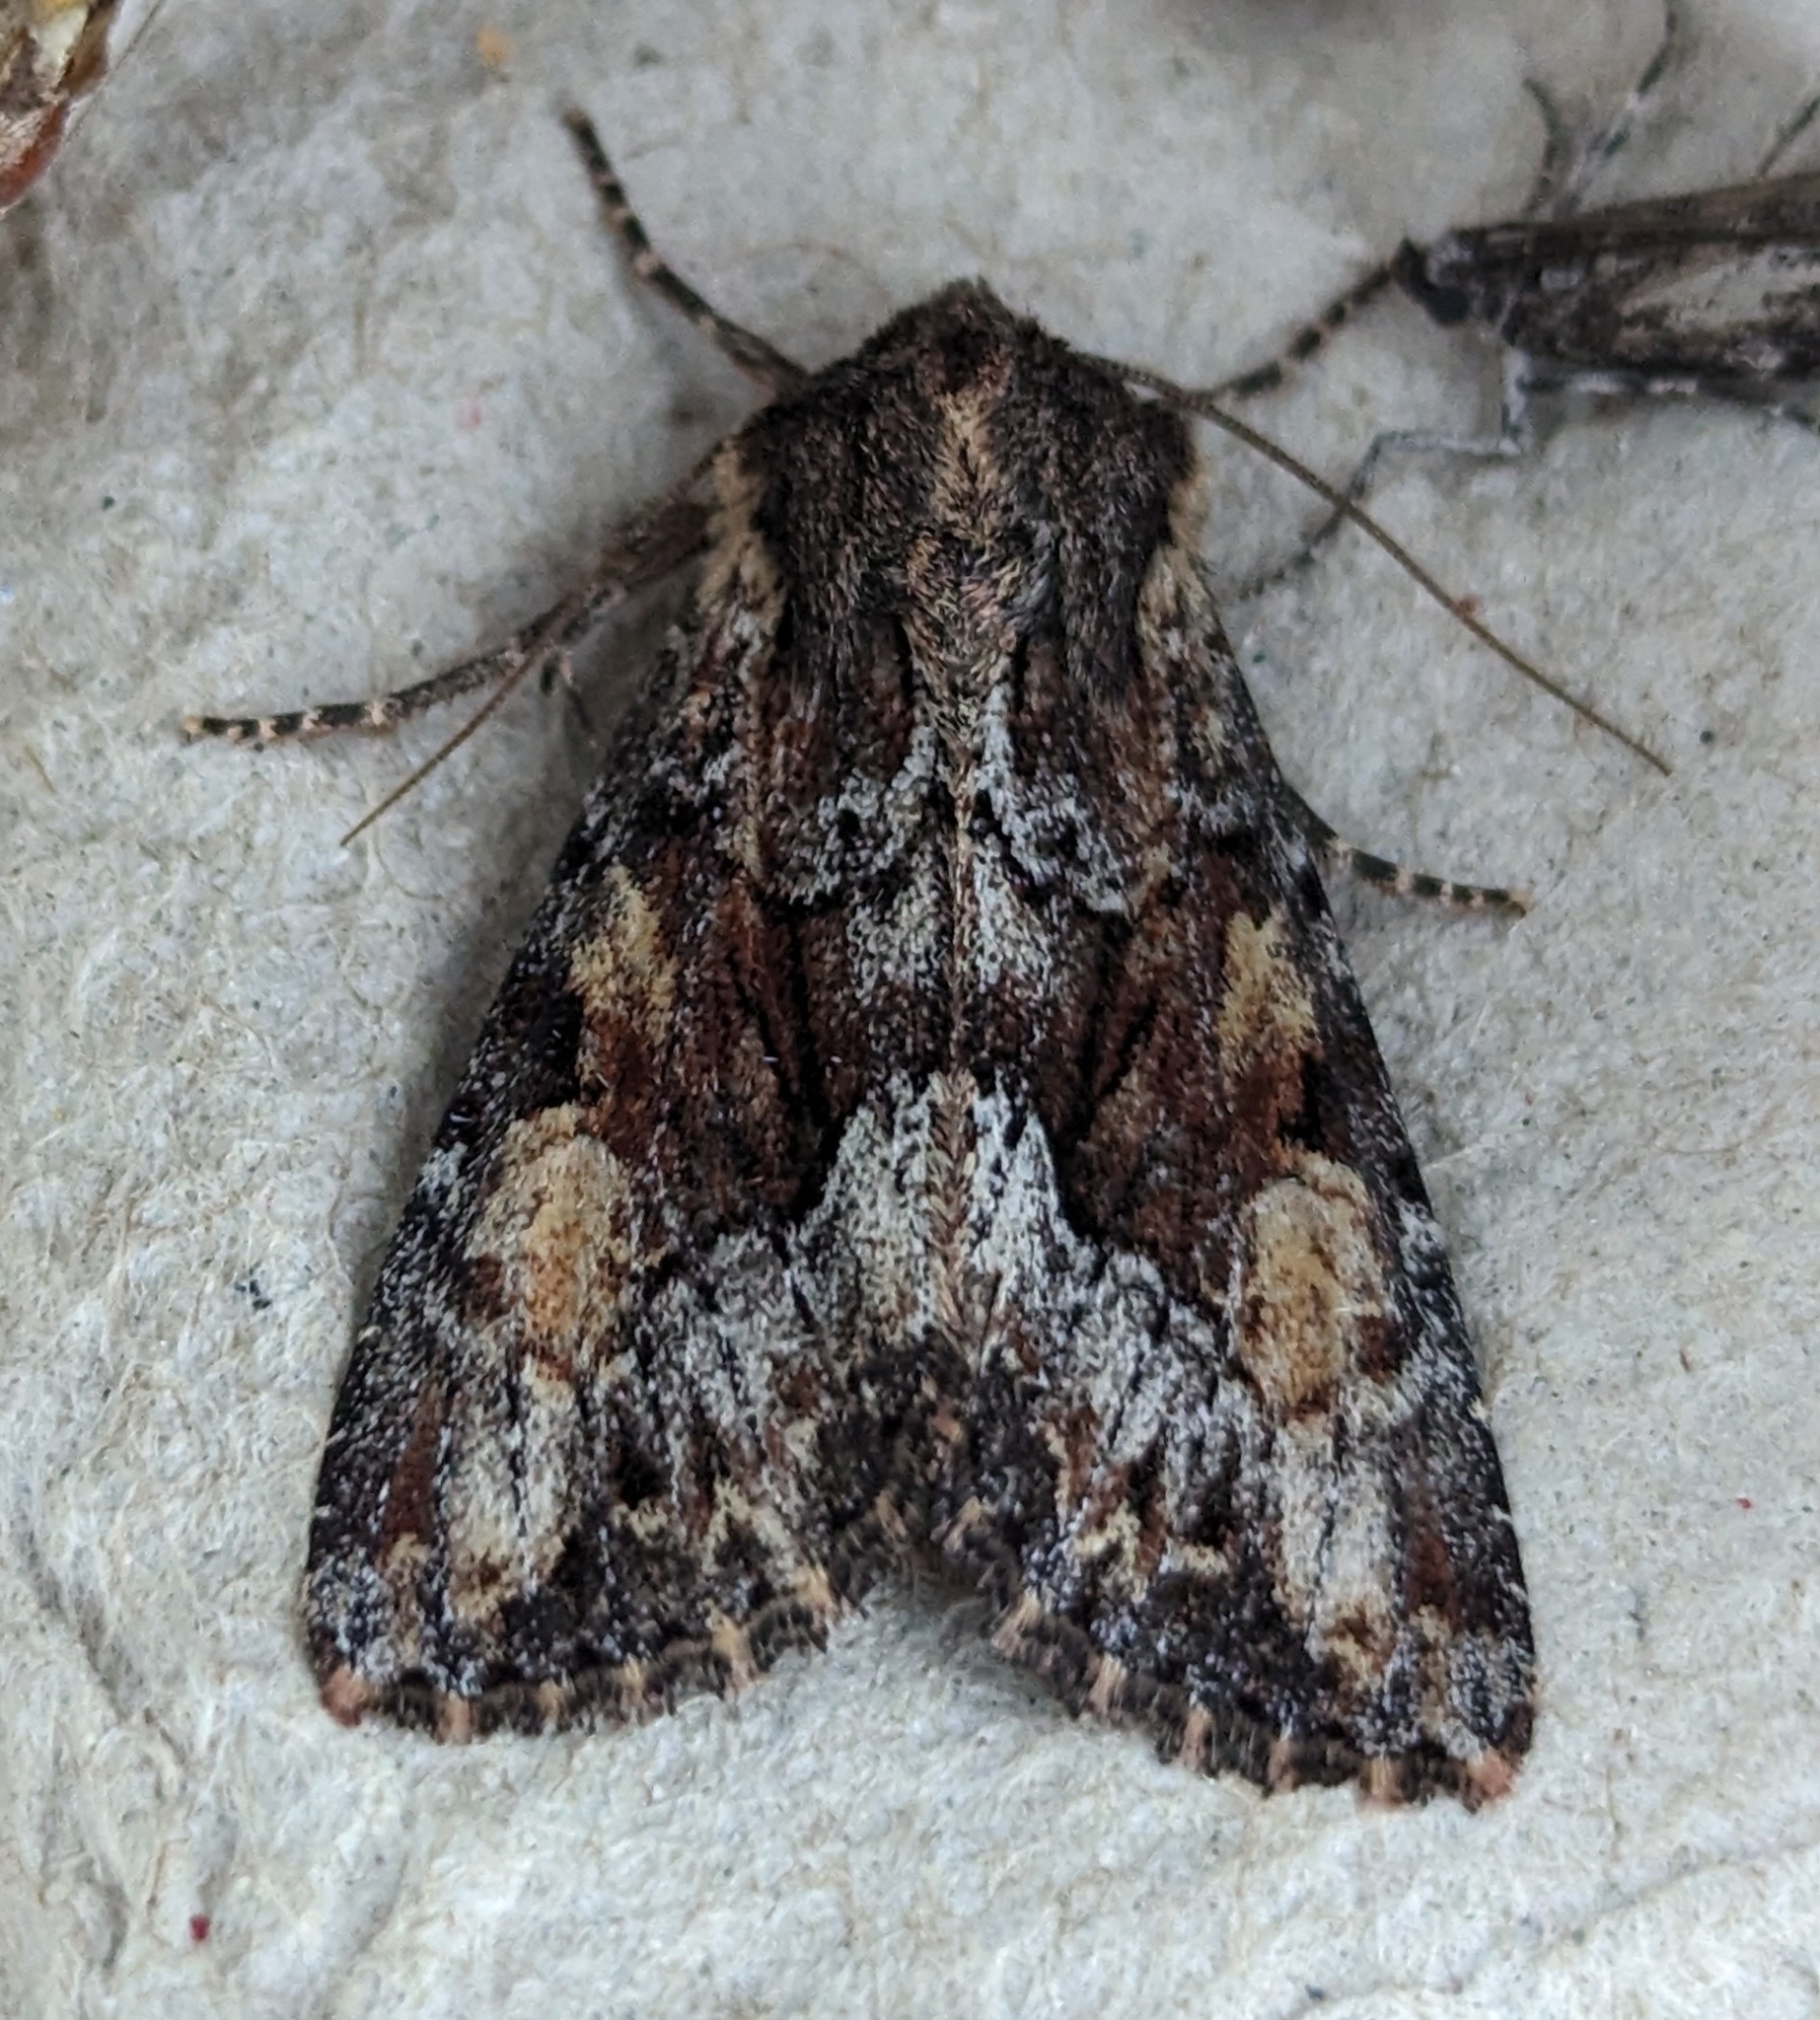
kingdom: Animalia
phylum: Arthropoda
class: Insecta
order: Lepidoptera
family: Noctuidae
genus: Apamea
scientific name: Apamea sora
